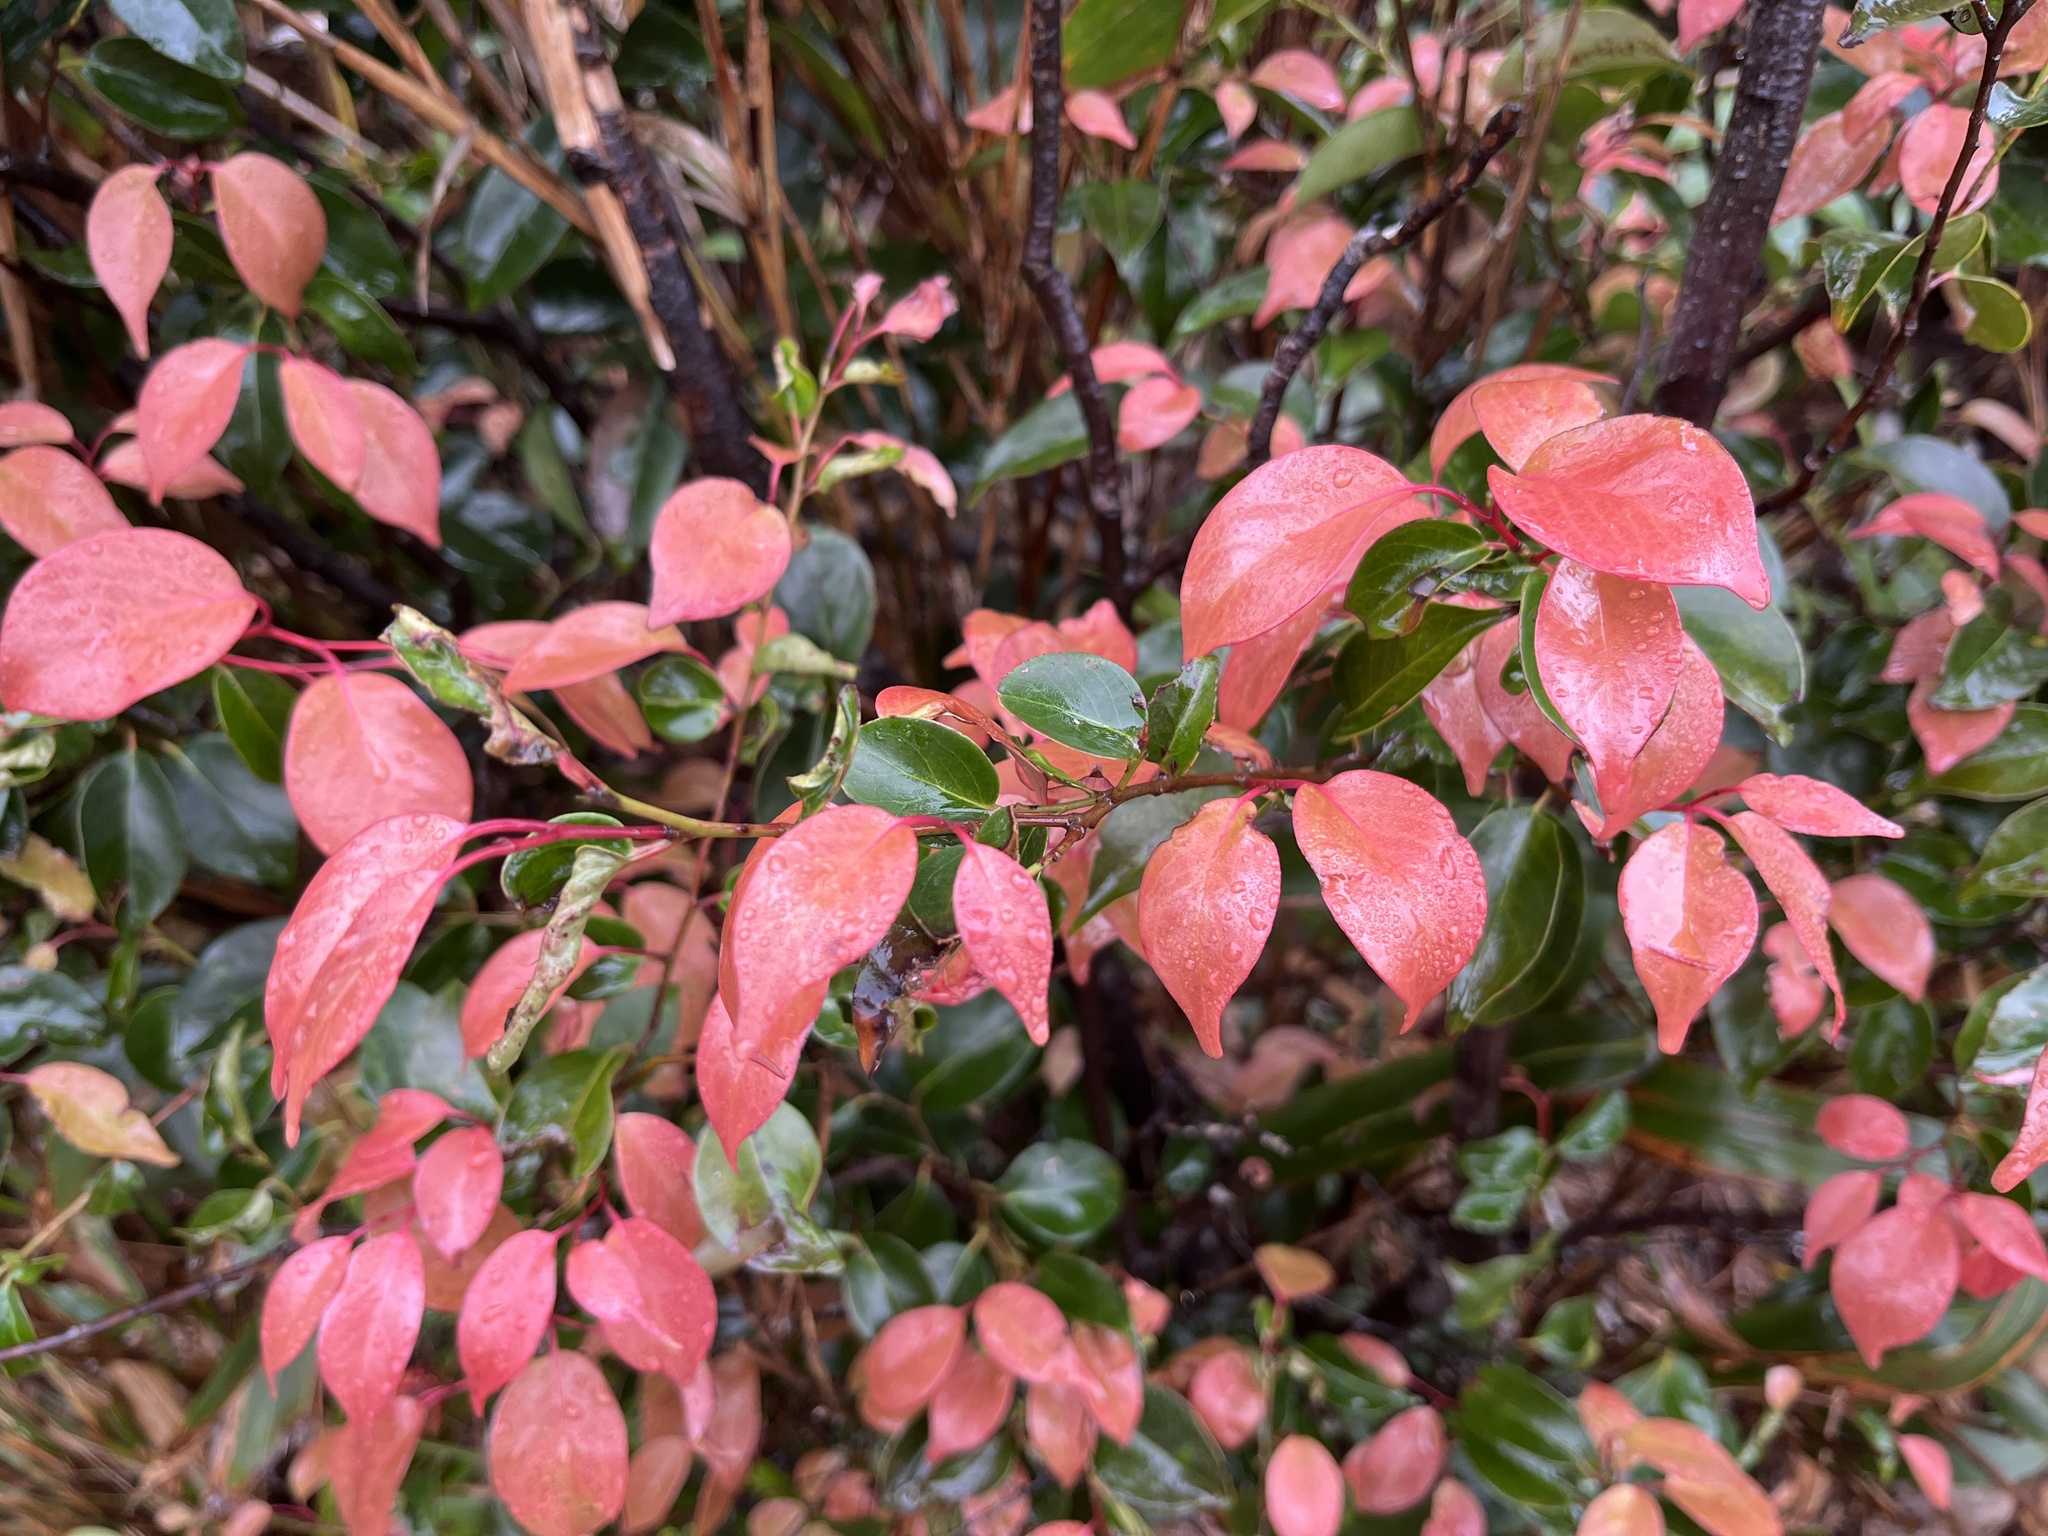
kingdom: Plantae
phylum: Tracheophyta
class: Magnoliopsida
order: Ericales
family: Pentaphylacaceae
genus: Pentaphylax
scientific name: Pentaphylax euryoides
